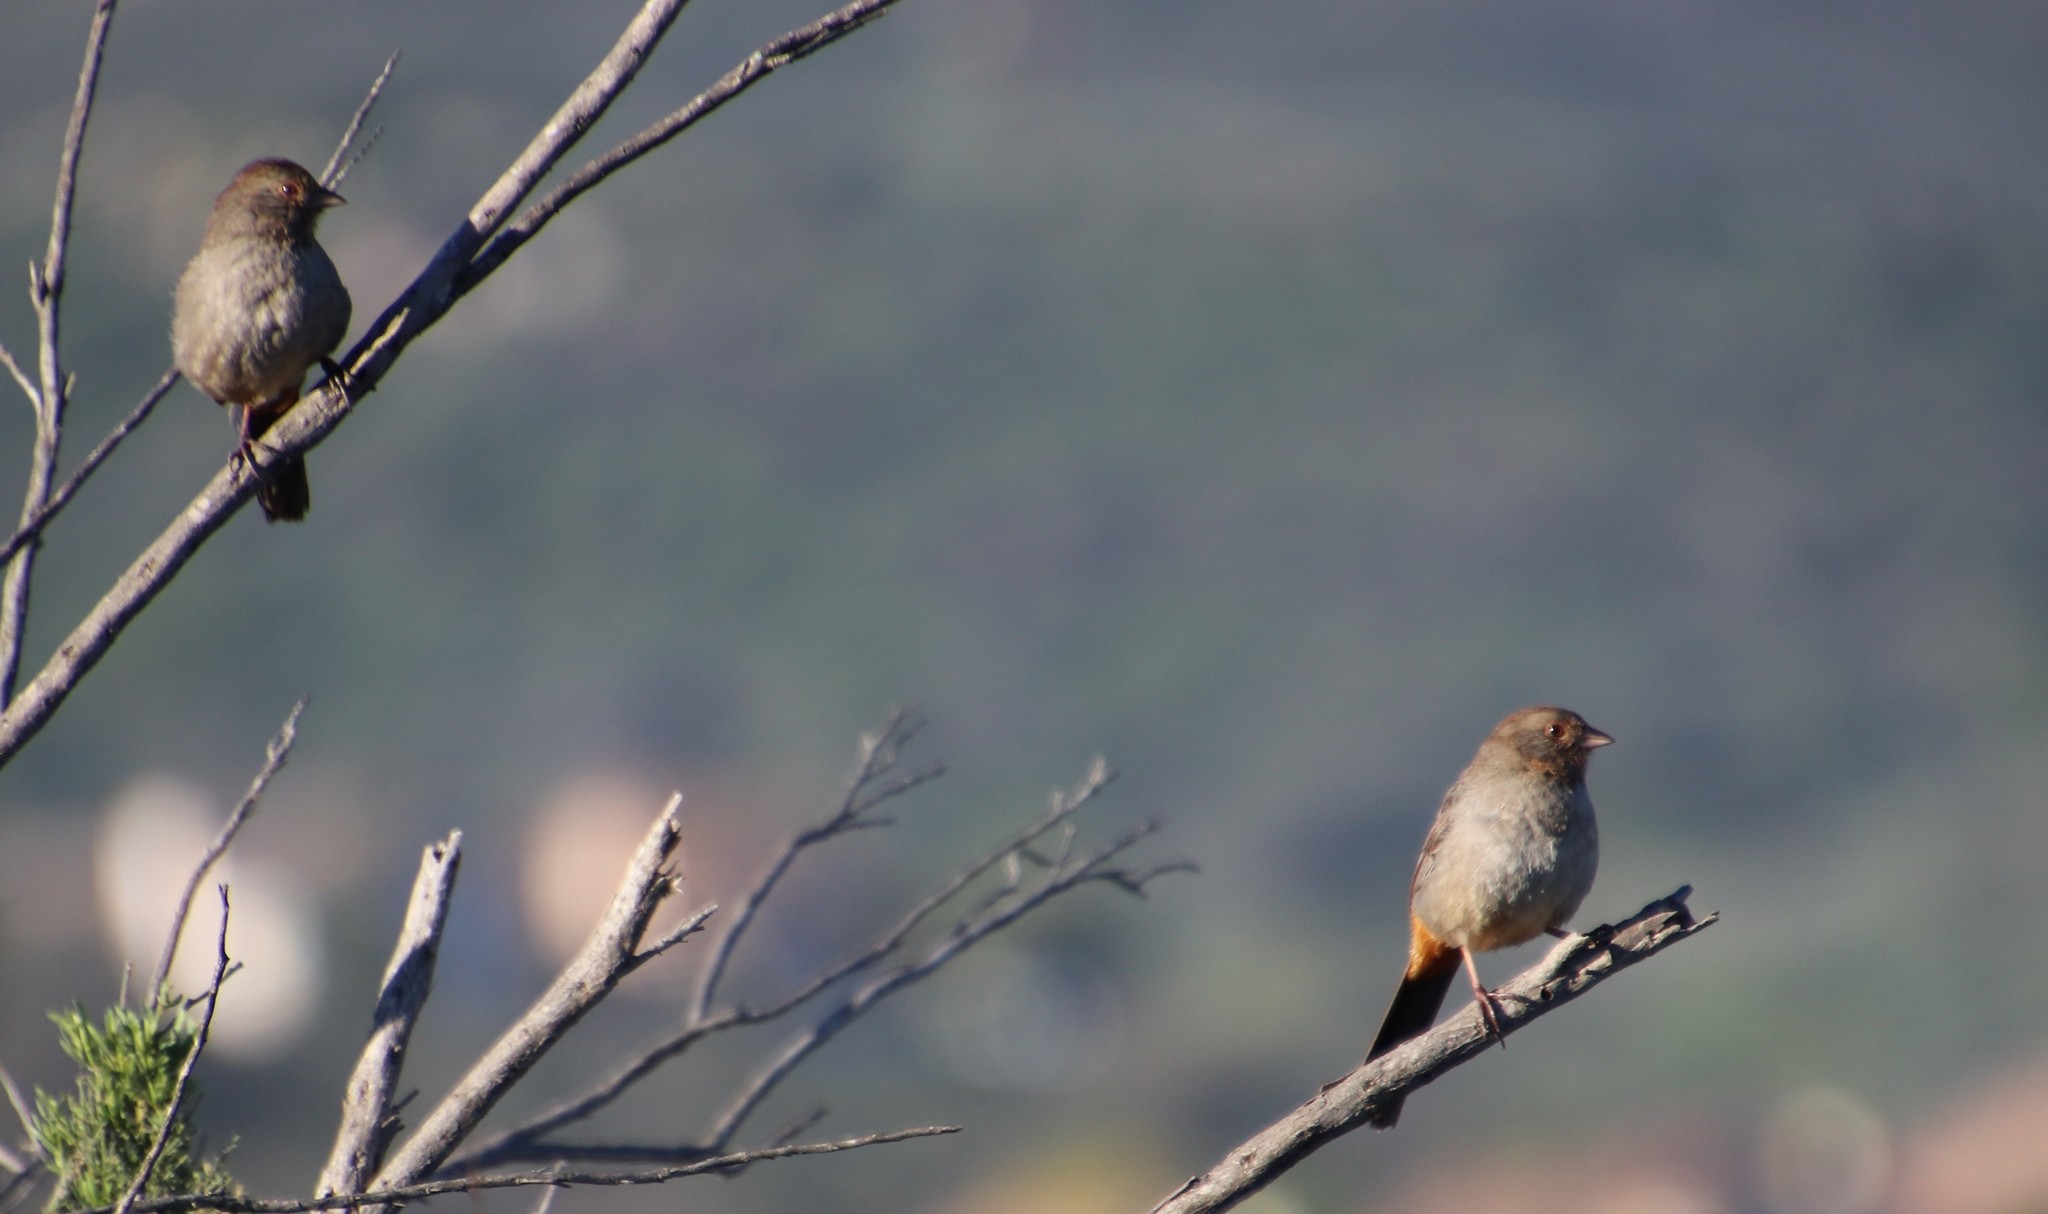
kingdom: Animalia
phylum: Chordata
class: Aves
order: Passeriformes
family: Passerellidae
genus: Melozone
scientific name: Melozone crissalis
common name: California towhee
